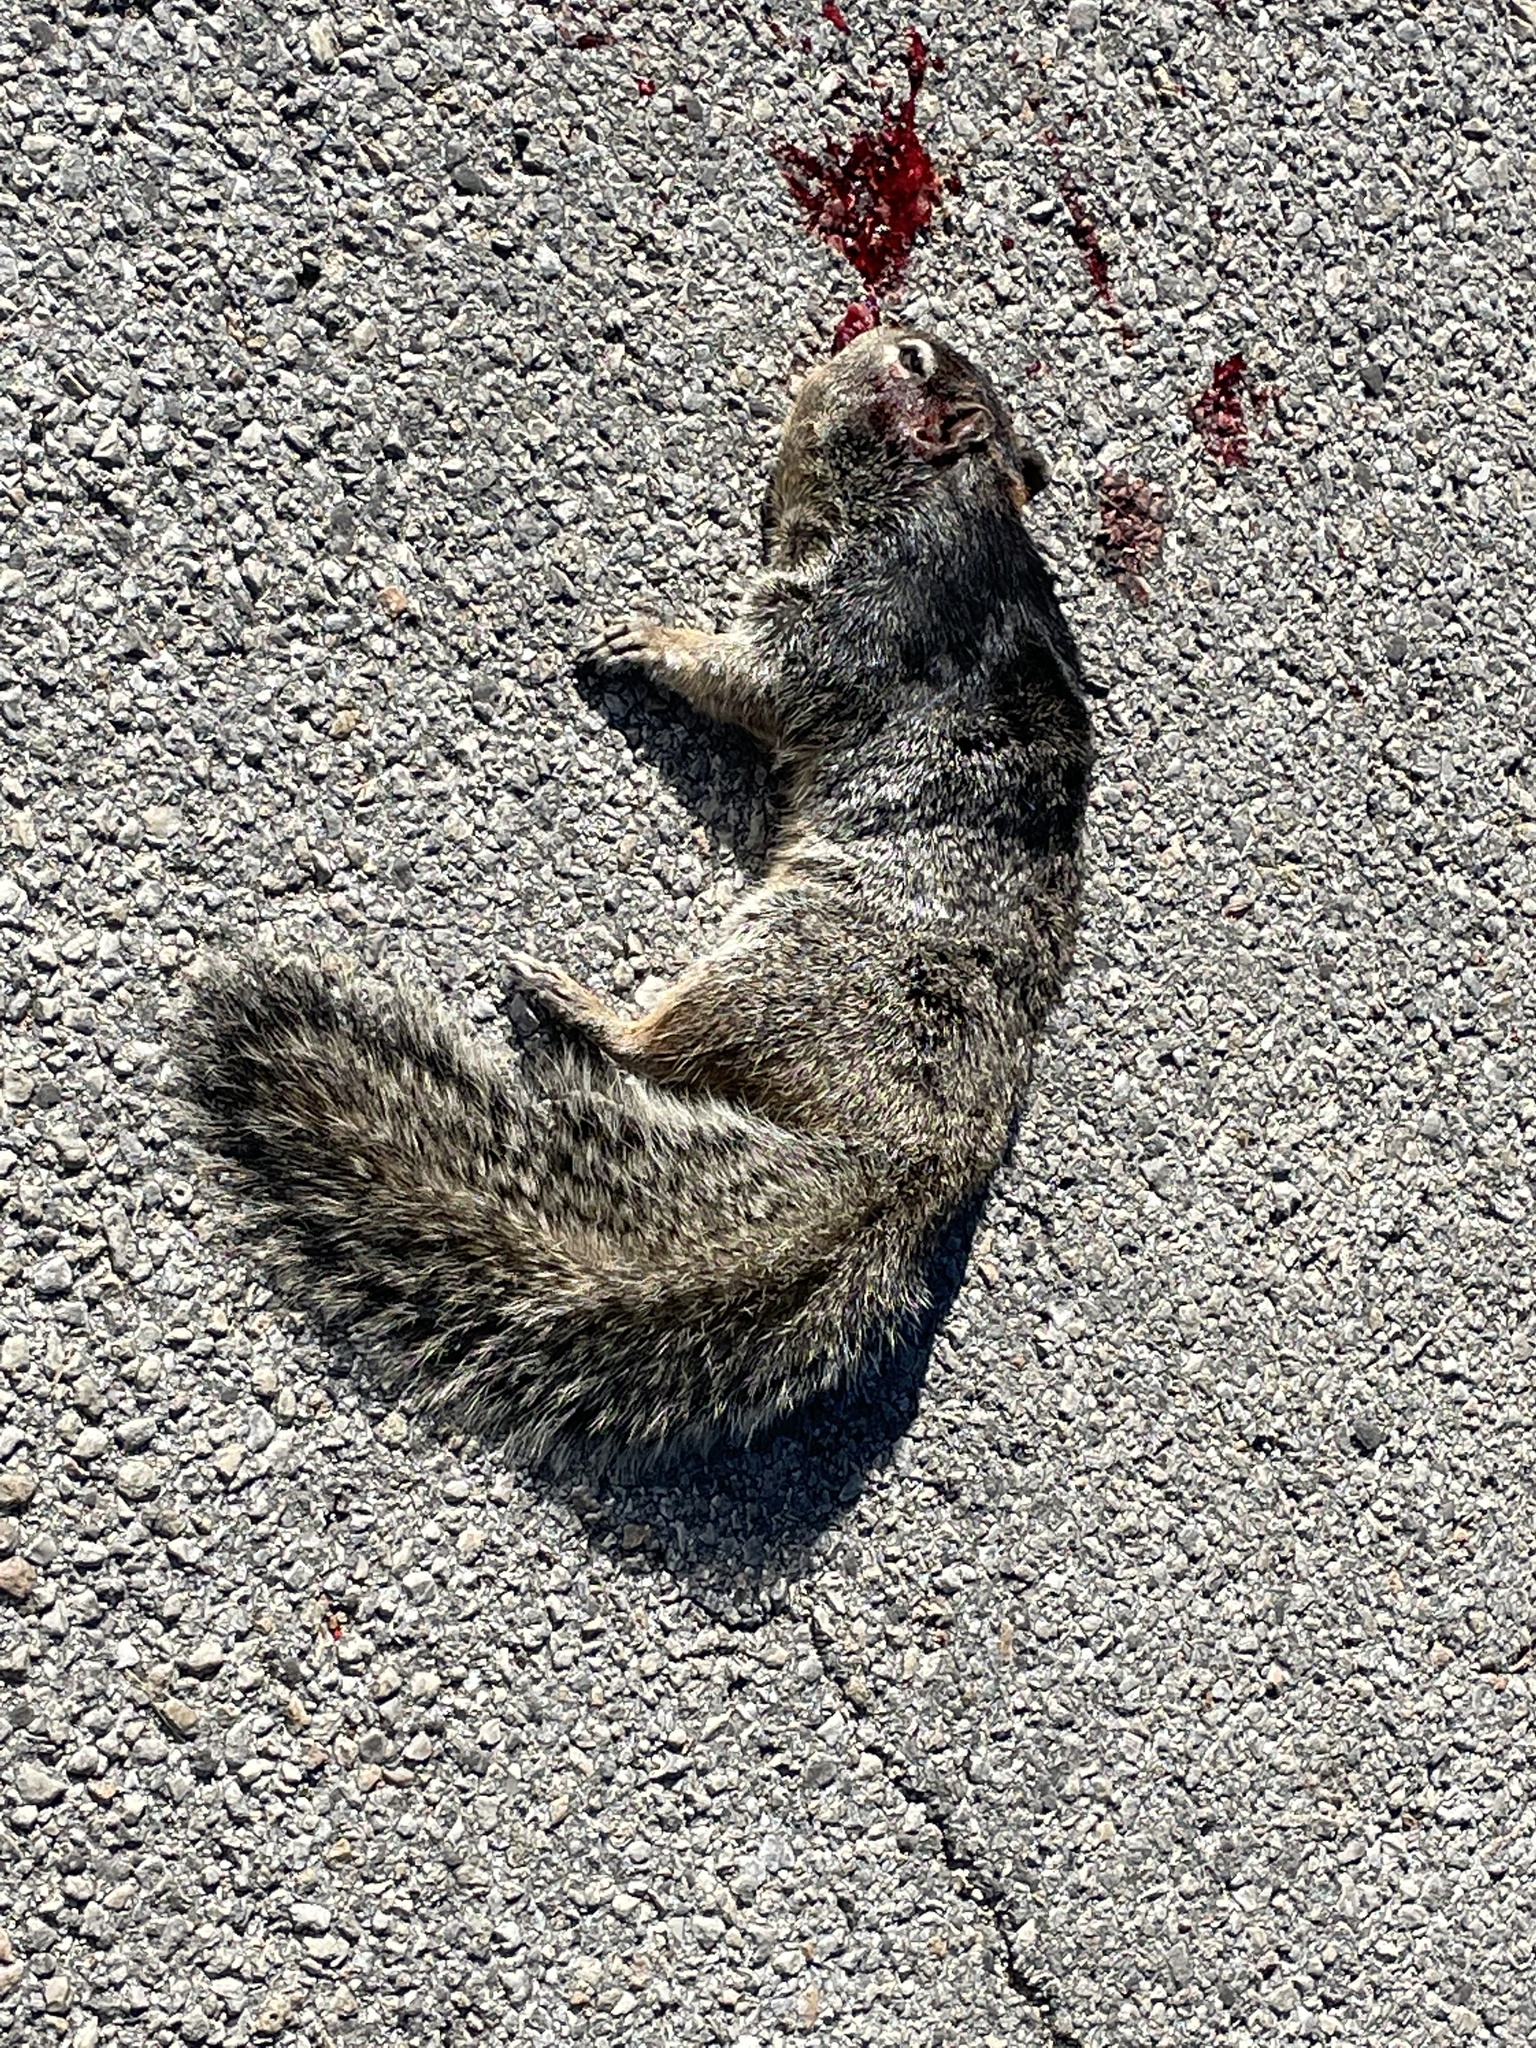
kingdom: Animalia
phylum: Chordata
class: Mammalia
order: Rodentia
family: Sciuridae
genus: Otospermophilus
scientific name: Otospermophilus variegatus
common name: Rock squirrel
